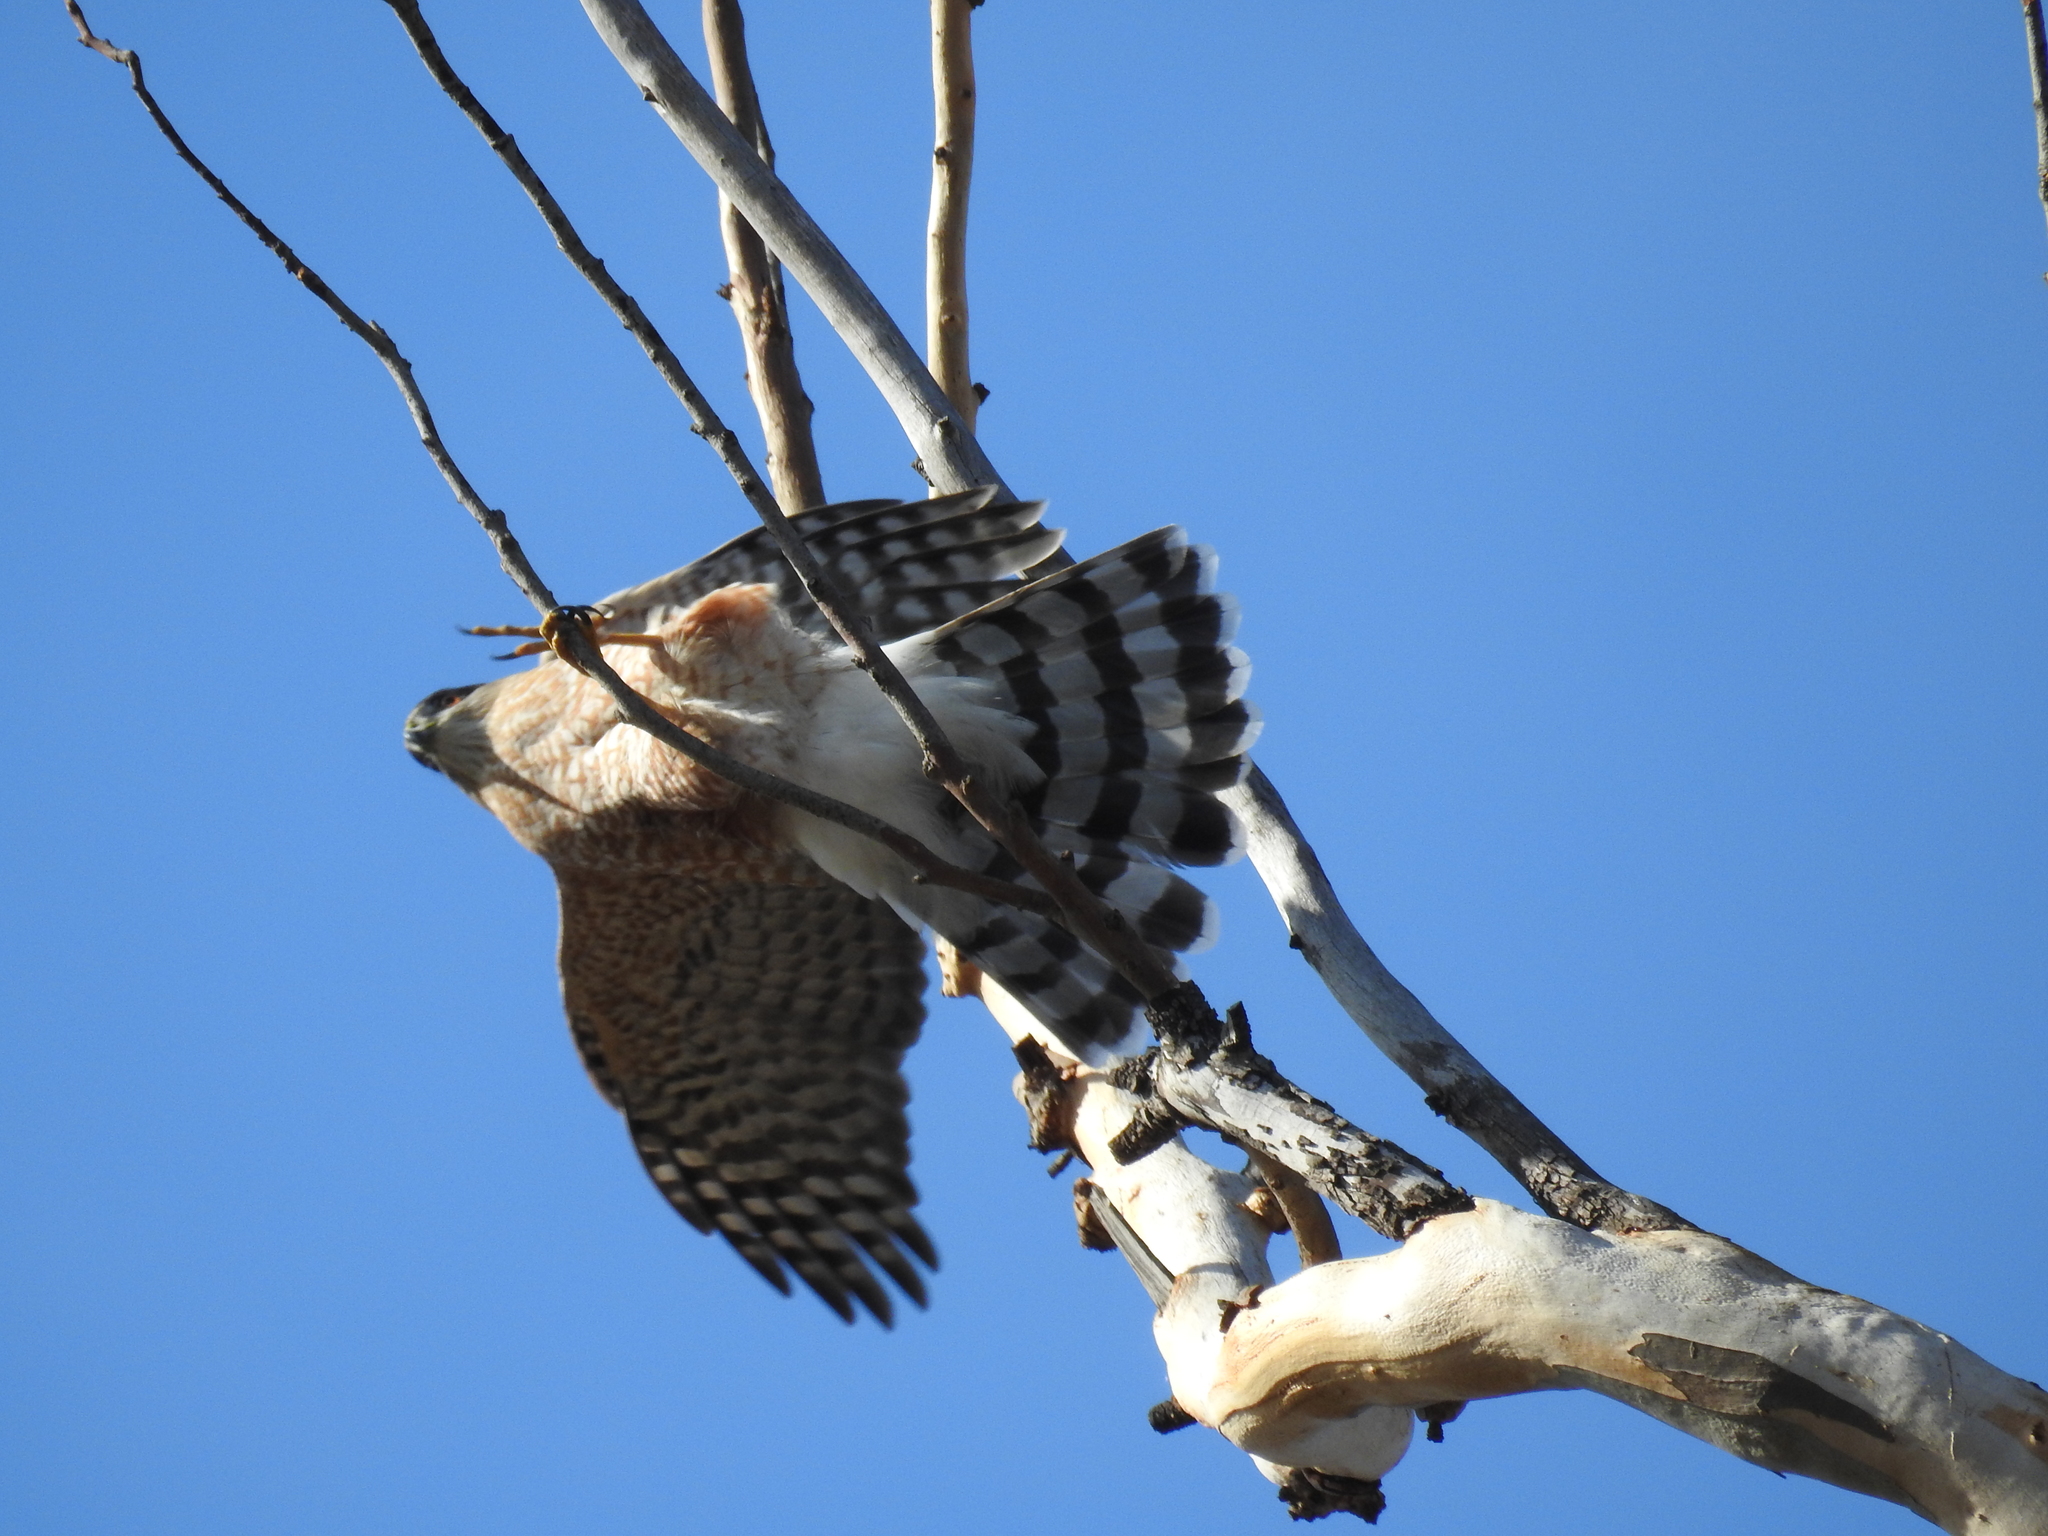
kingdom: Animalia
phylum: Chordata
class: Aves
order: Accipitriformes
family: Accipitridae
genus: Accipiter
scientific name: Accipiter striatus
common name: Sharp-shinned hawk
